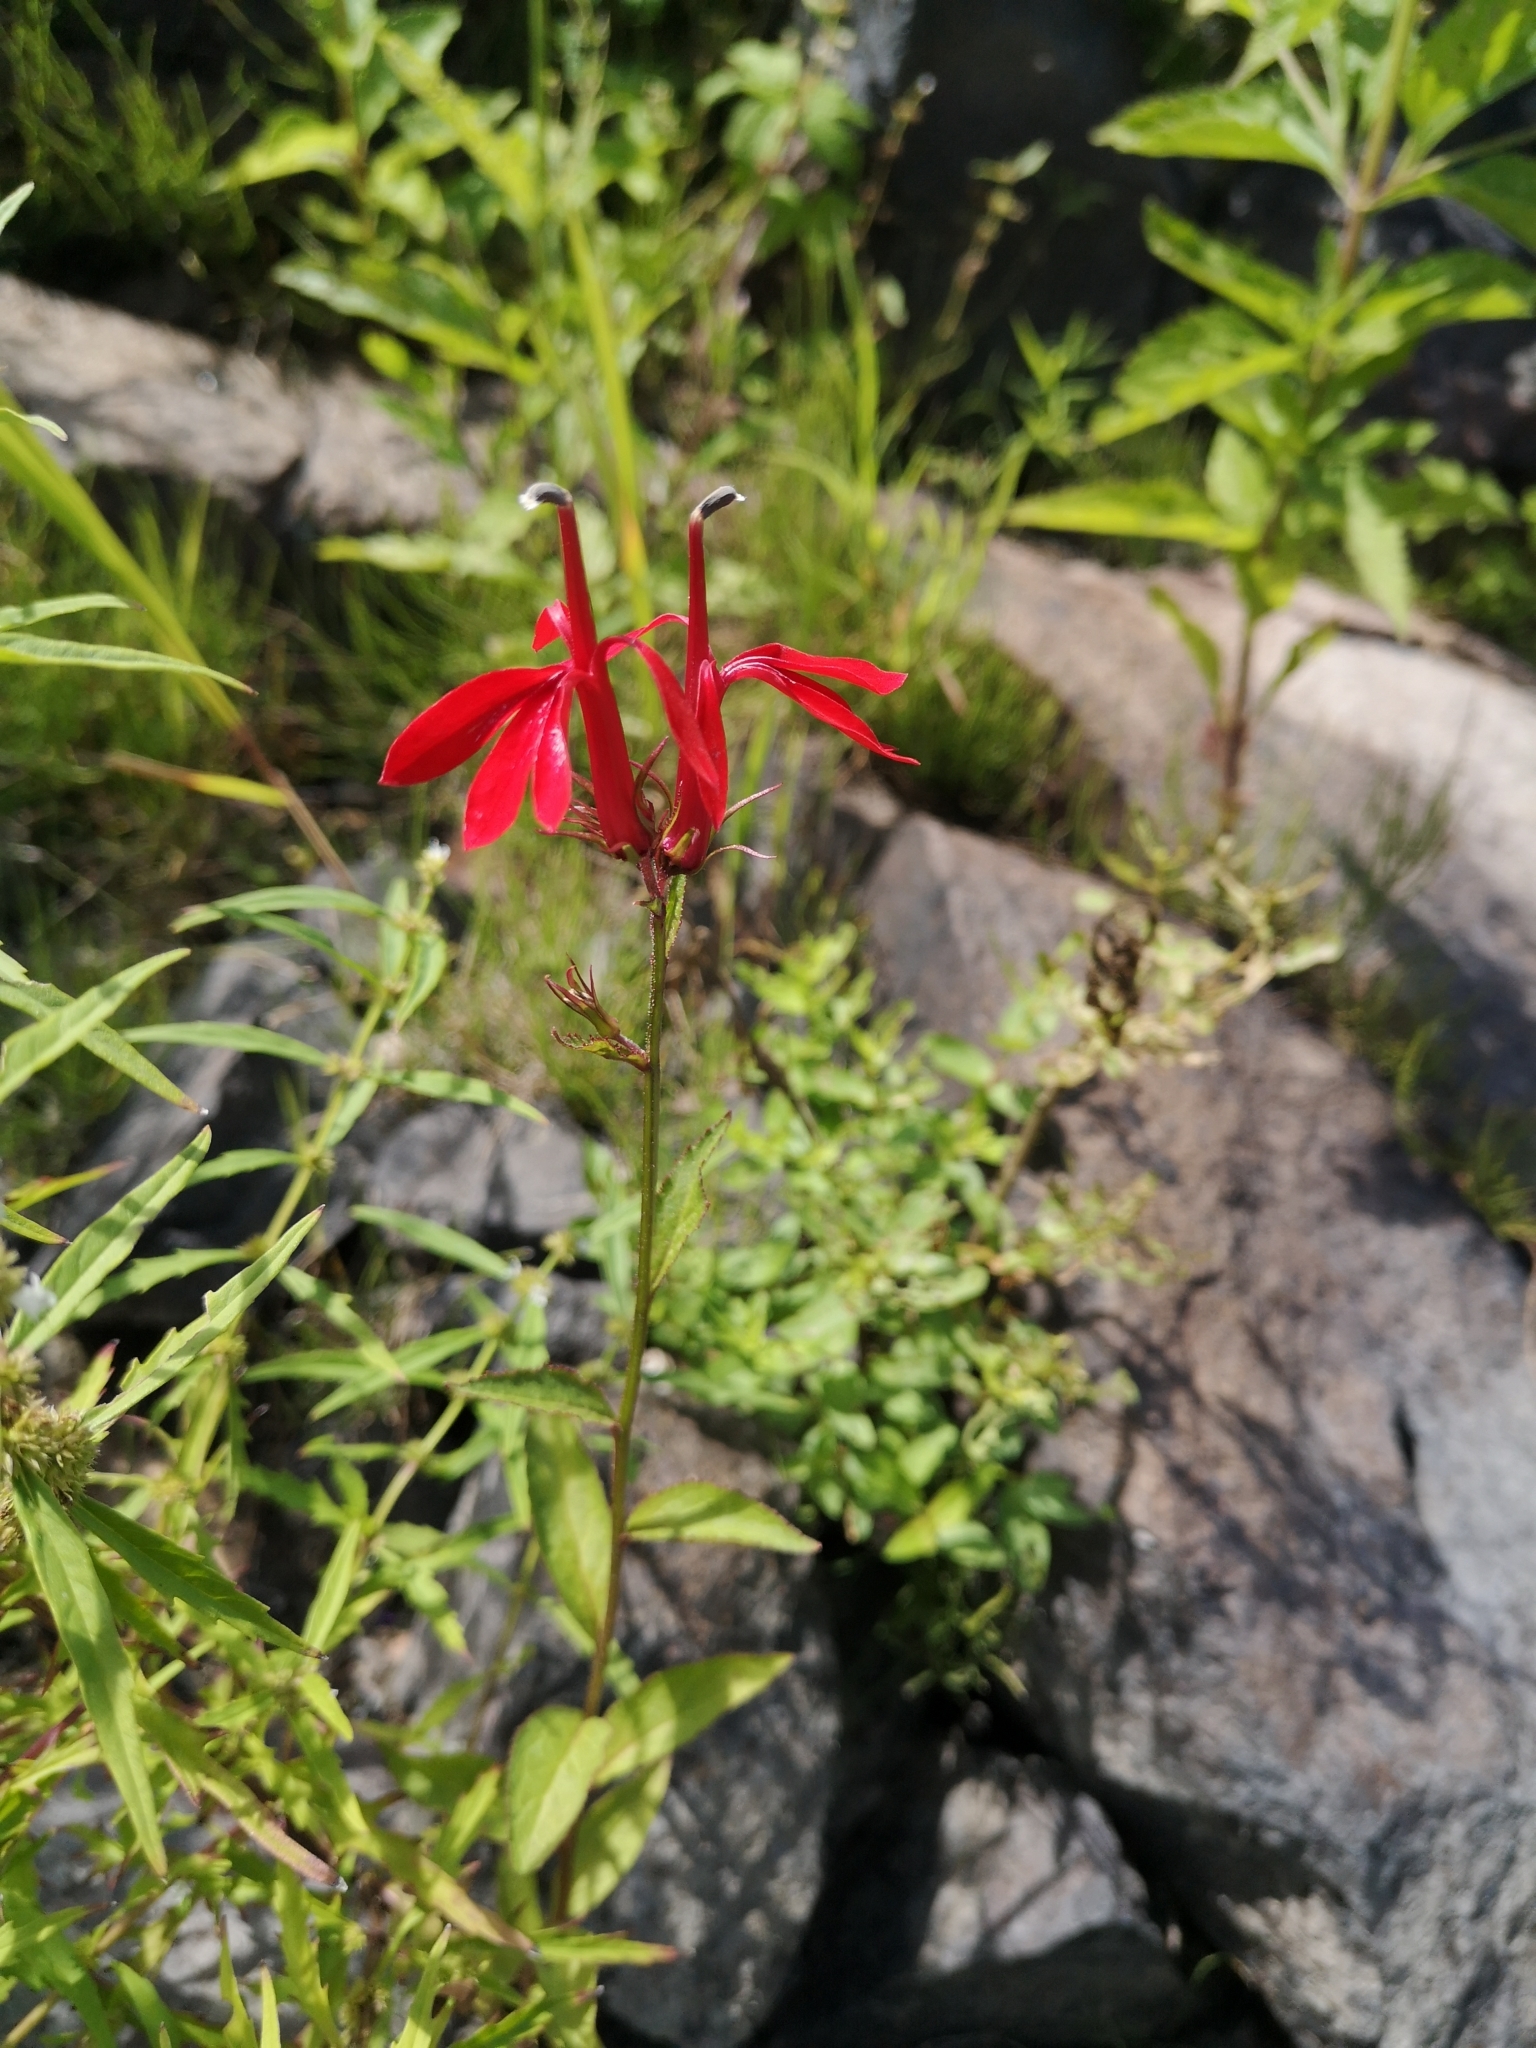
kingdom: Plantae
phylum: Tracheophyta
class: Magnoliopsida
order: Asterales
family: Campanulaceae
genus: Lobelia
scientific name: Lobelia cardinalis
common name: Cardinal flower
